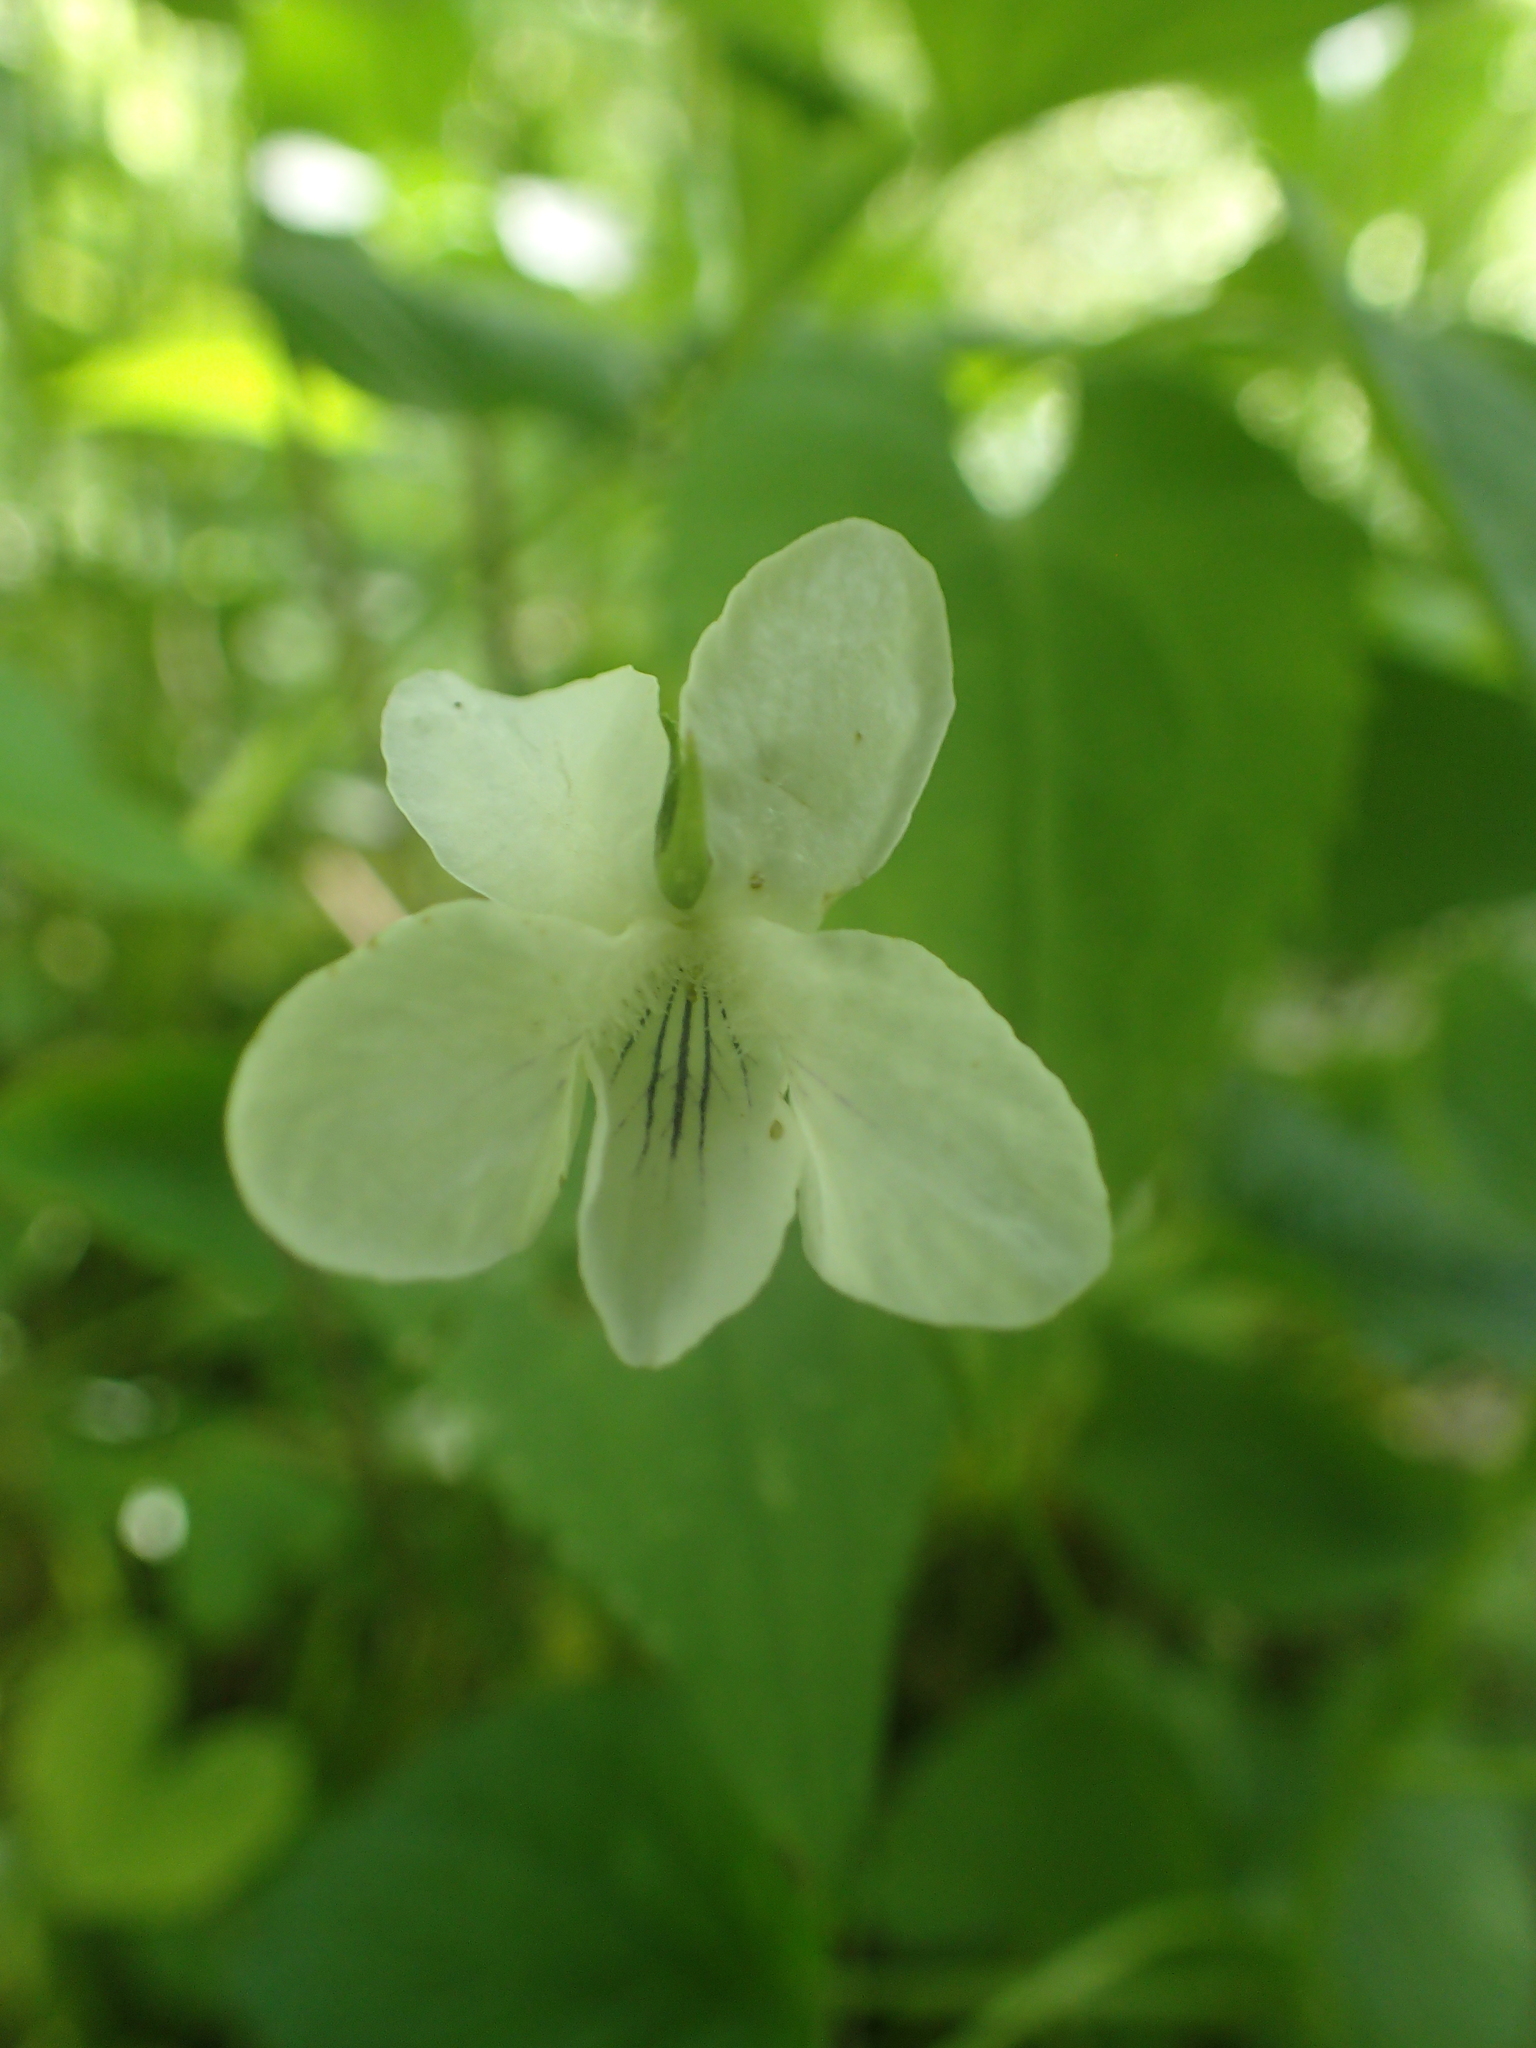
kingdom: Plantae
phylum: Tracheophyta
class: Magnoliopsida
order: Malpighiales
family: Violaceae
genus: Viola
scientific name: Viola striata
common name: Cream violet
